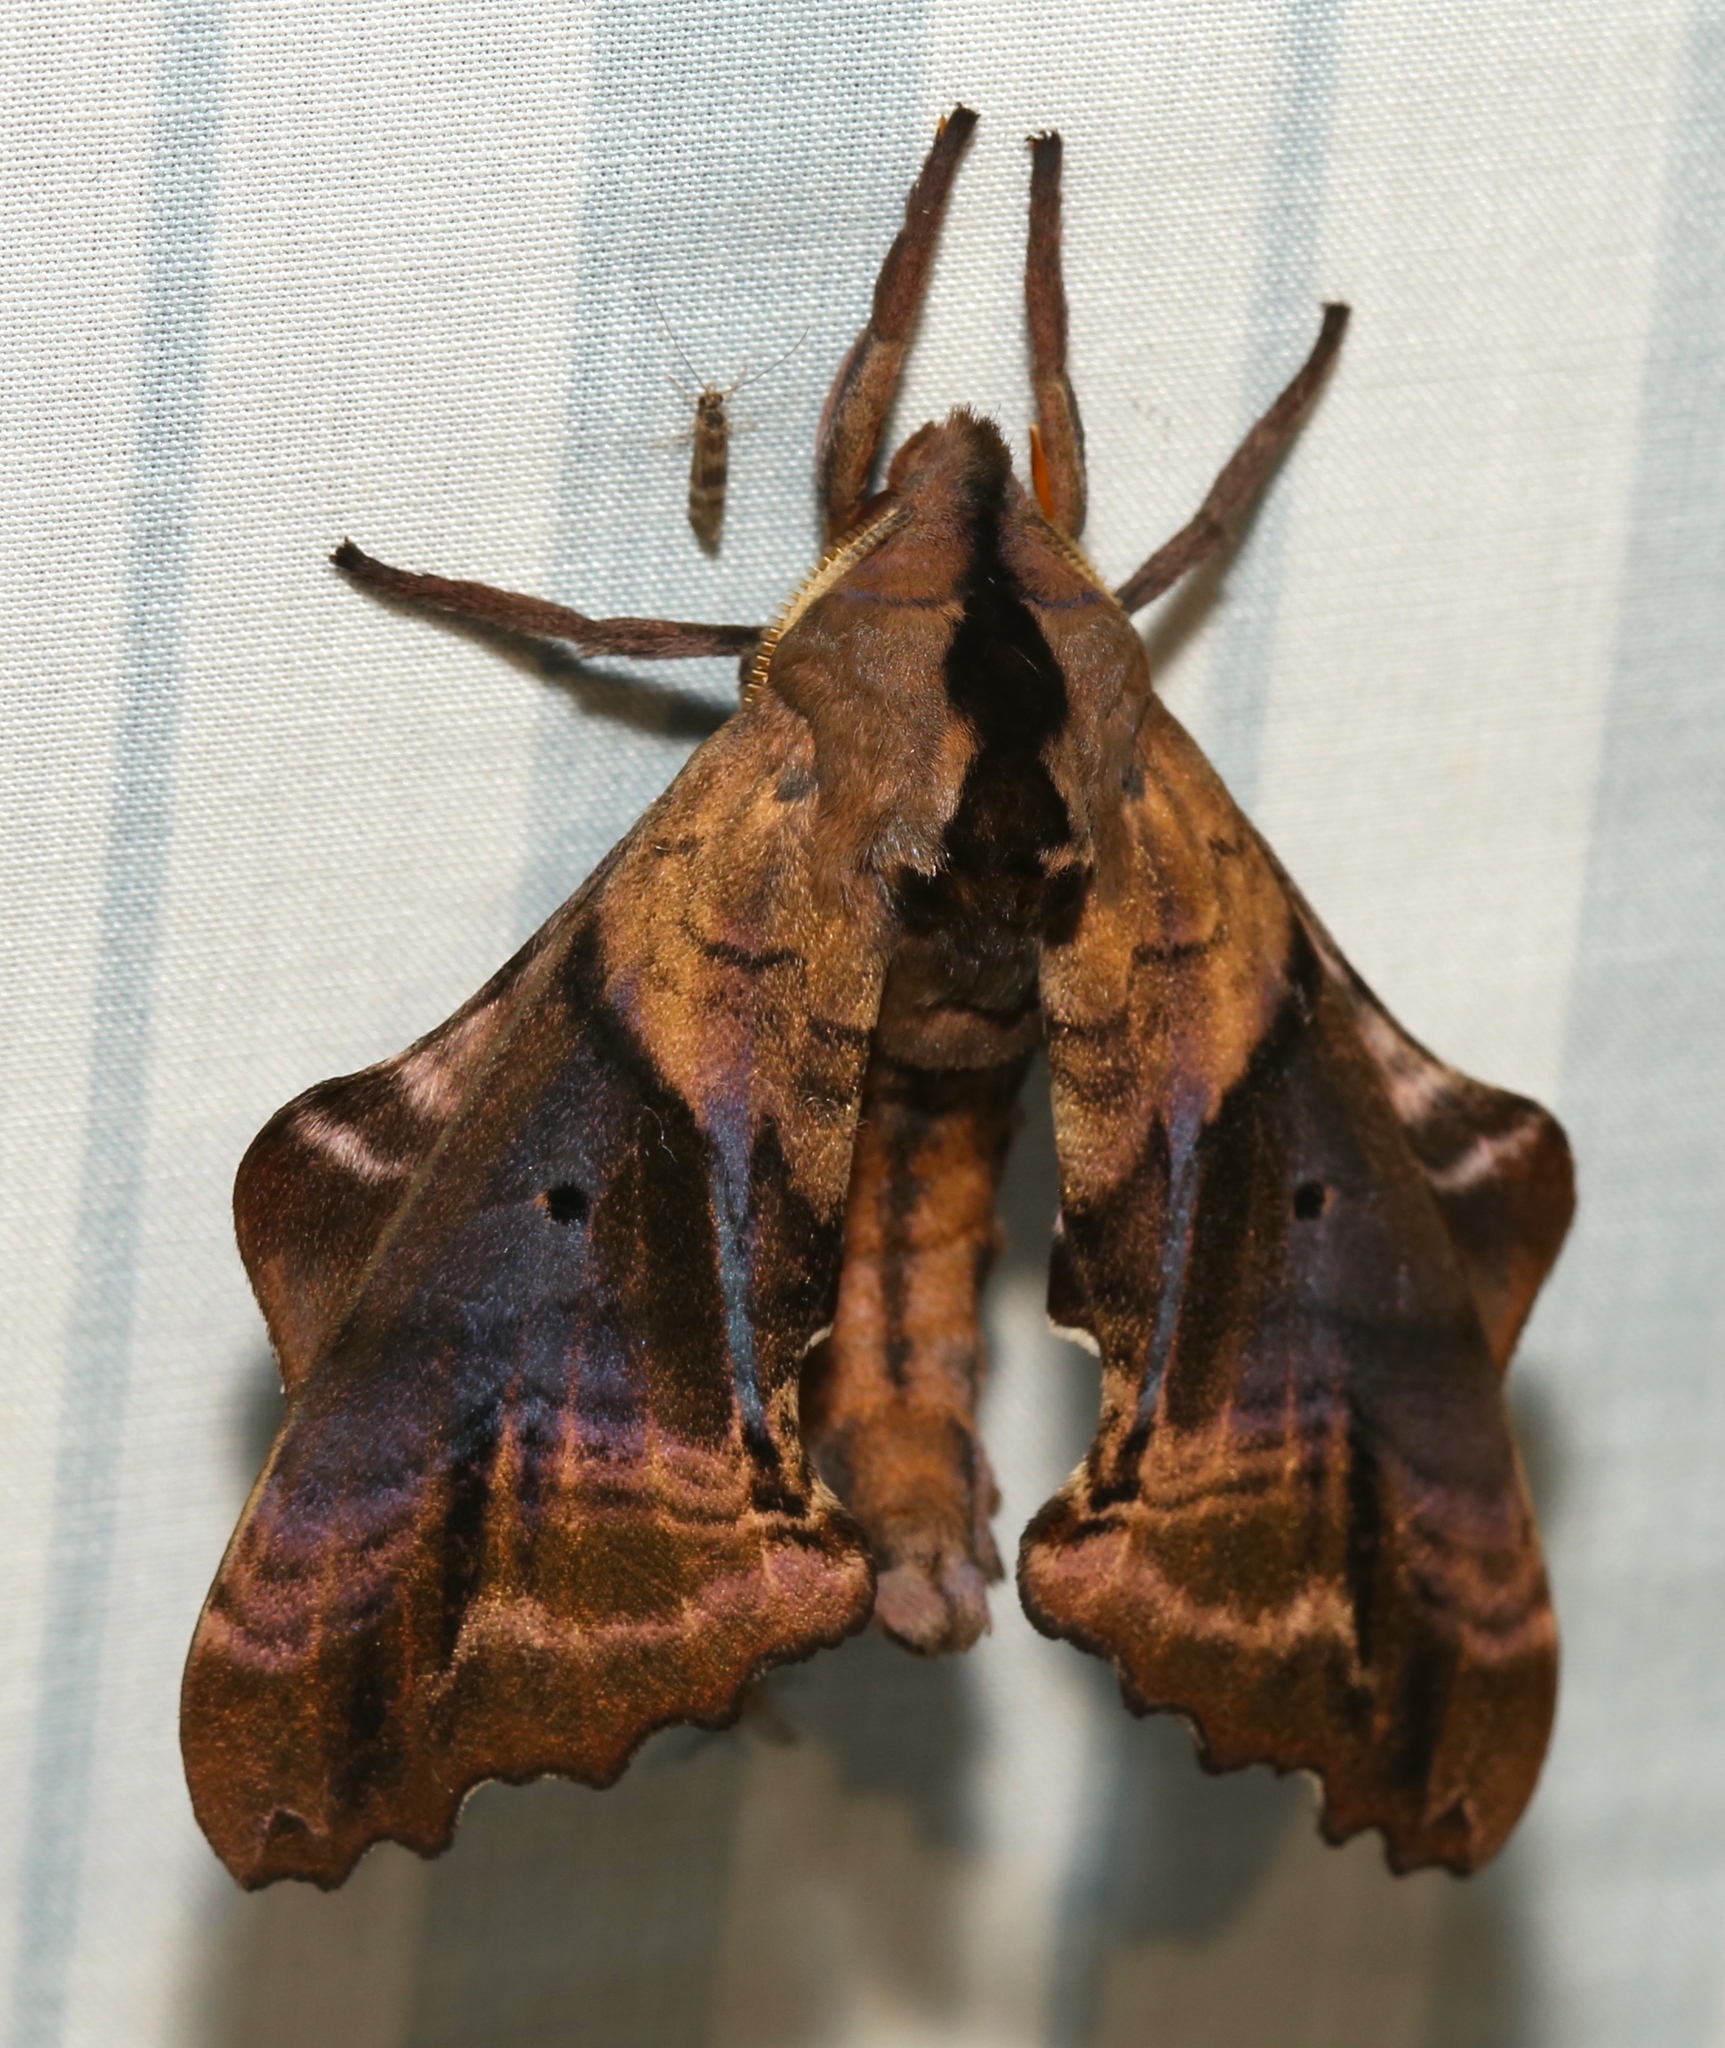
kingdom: Animalia
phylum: Arthropoda
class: Insecta
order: Lepidoptera
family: Sphingidae
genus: Paonias
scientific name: Paonias excaecata
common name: Blind-eyed sphinx
